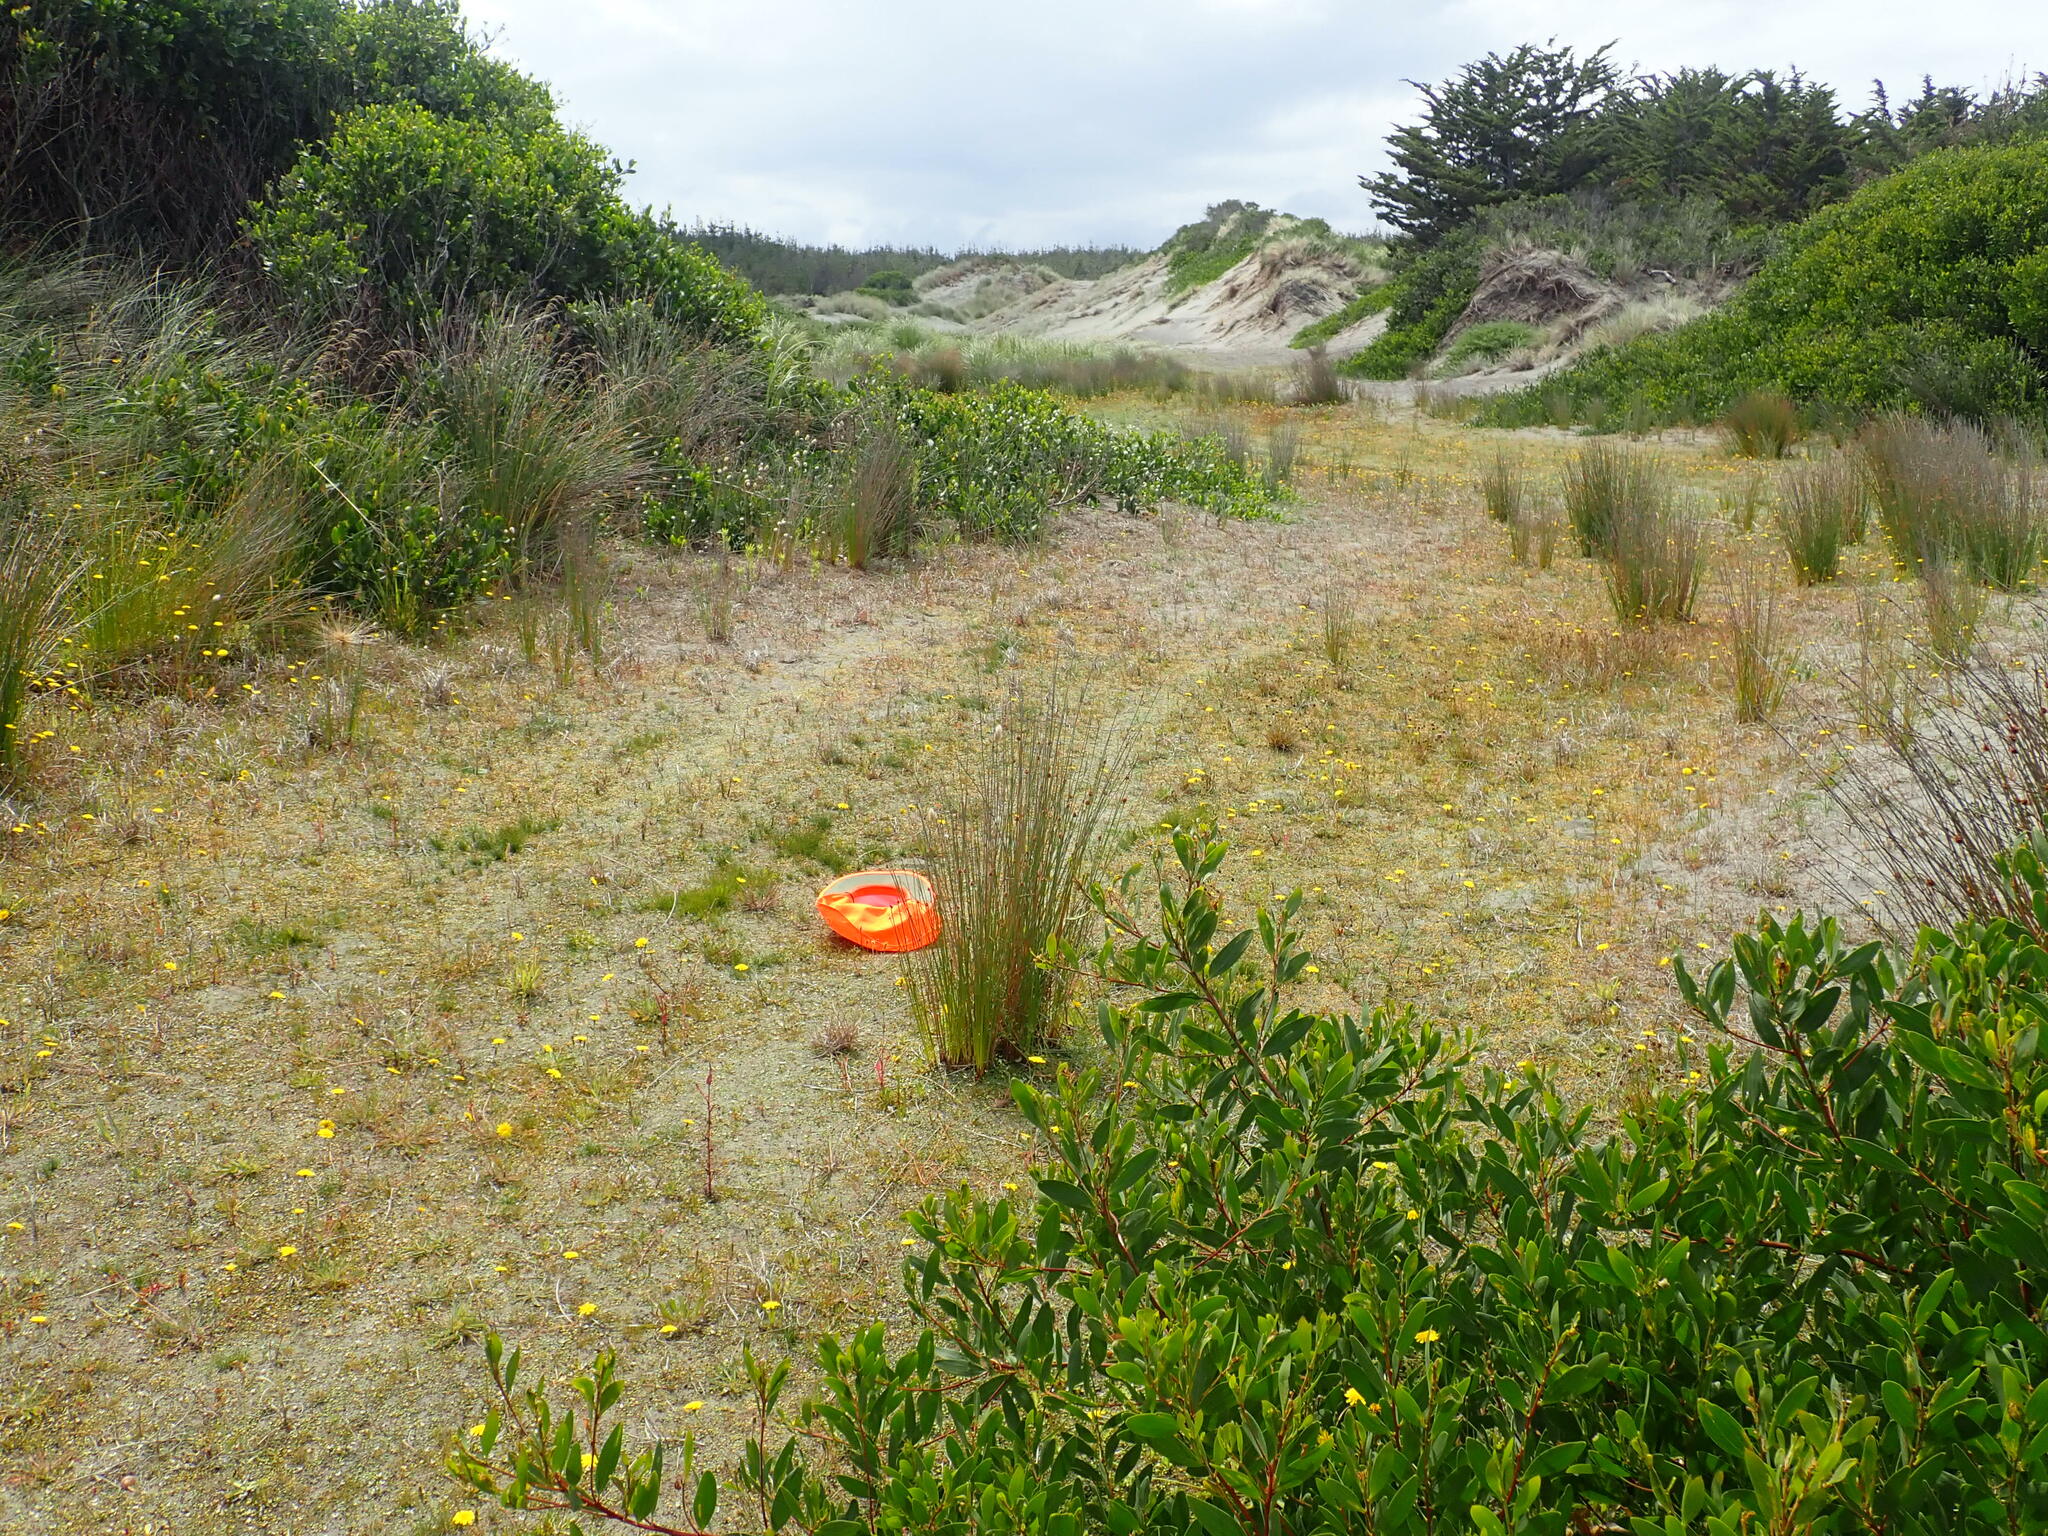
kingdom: Plantae
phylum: Tracheophyta
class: Liliopsida
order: Alismatales
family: Juncaginaceae
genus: Triglochin
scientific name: Triglochin striata
